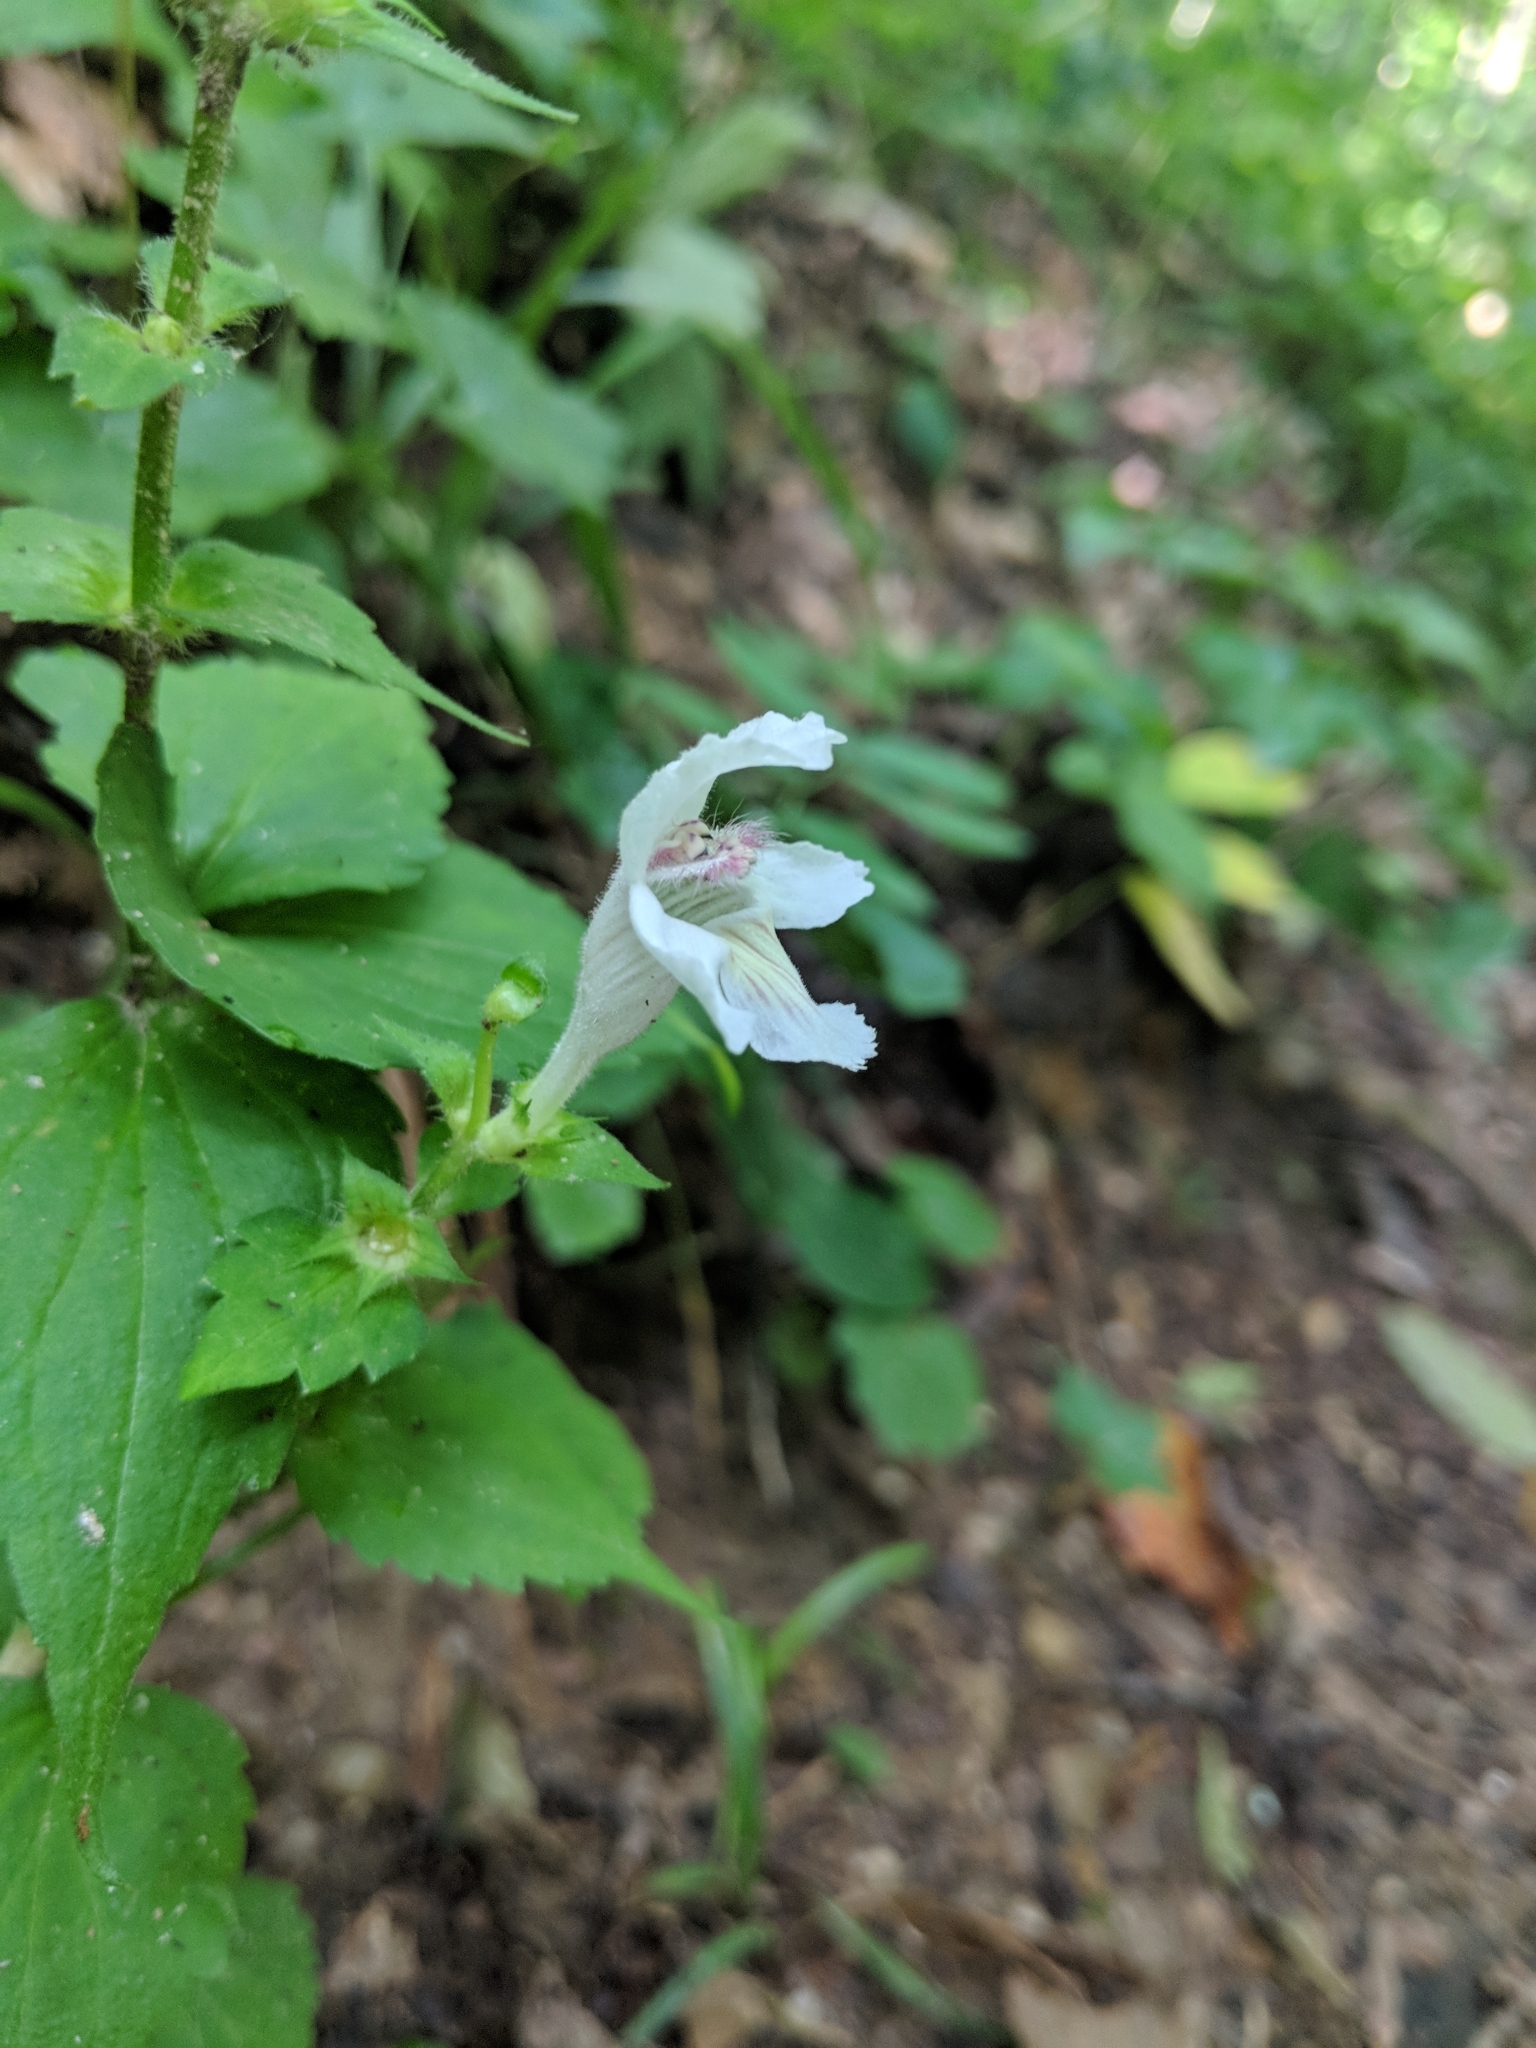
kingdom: Plantae
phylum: Tracheophyta
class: Magnoliopsida
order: Lamiales
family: Lamiaceae
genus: Synandra
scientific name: Synandra hispidula
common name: Synandra
